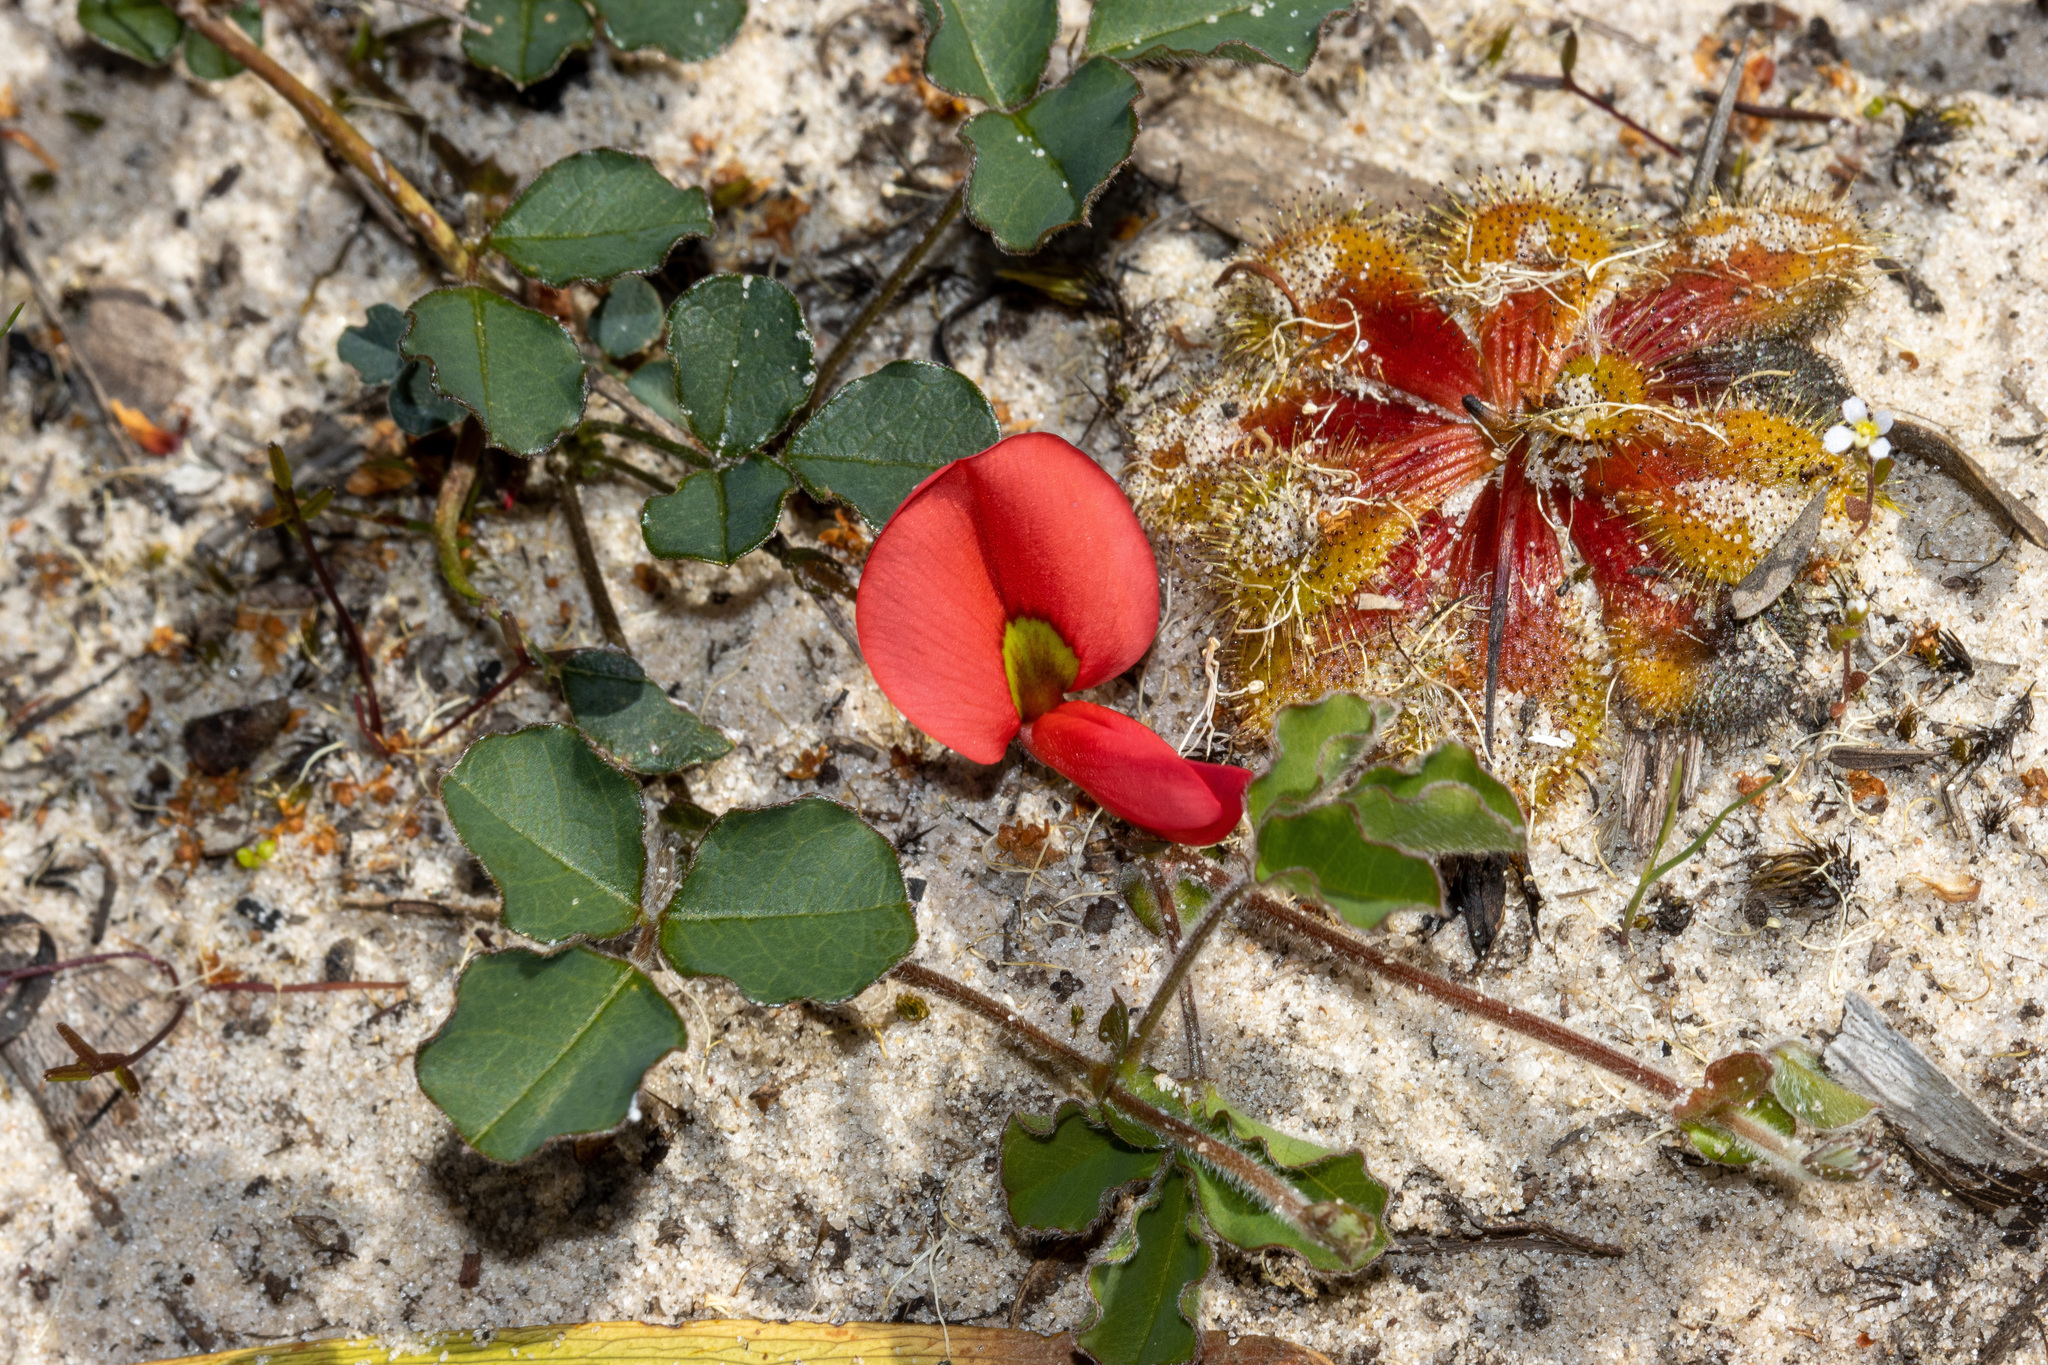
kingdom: Plantae
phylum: Tracheophyta
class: Magnoliopsida
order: Fabales
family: Fabaceae
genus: Kennedia
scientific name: Kennedia prostrata
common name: Running-postman
